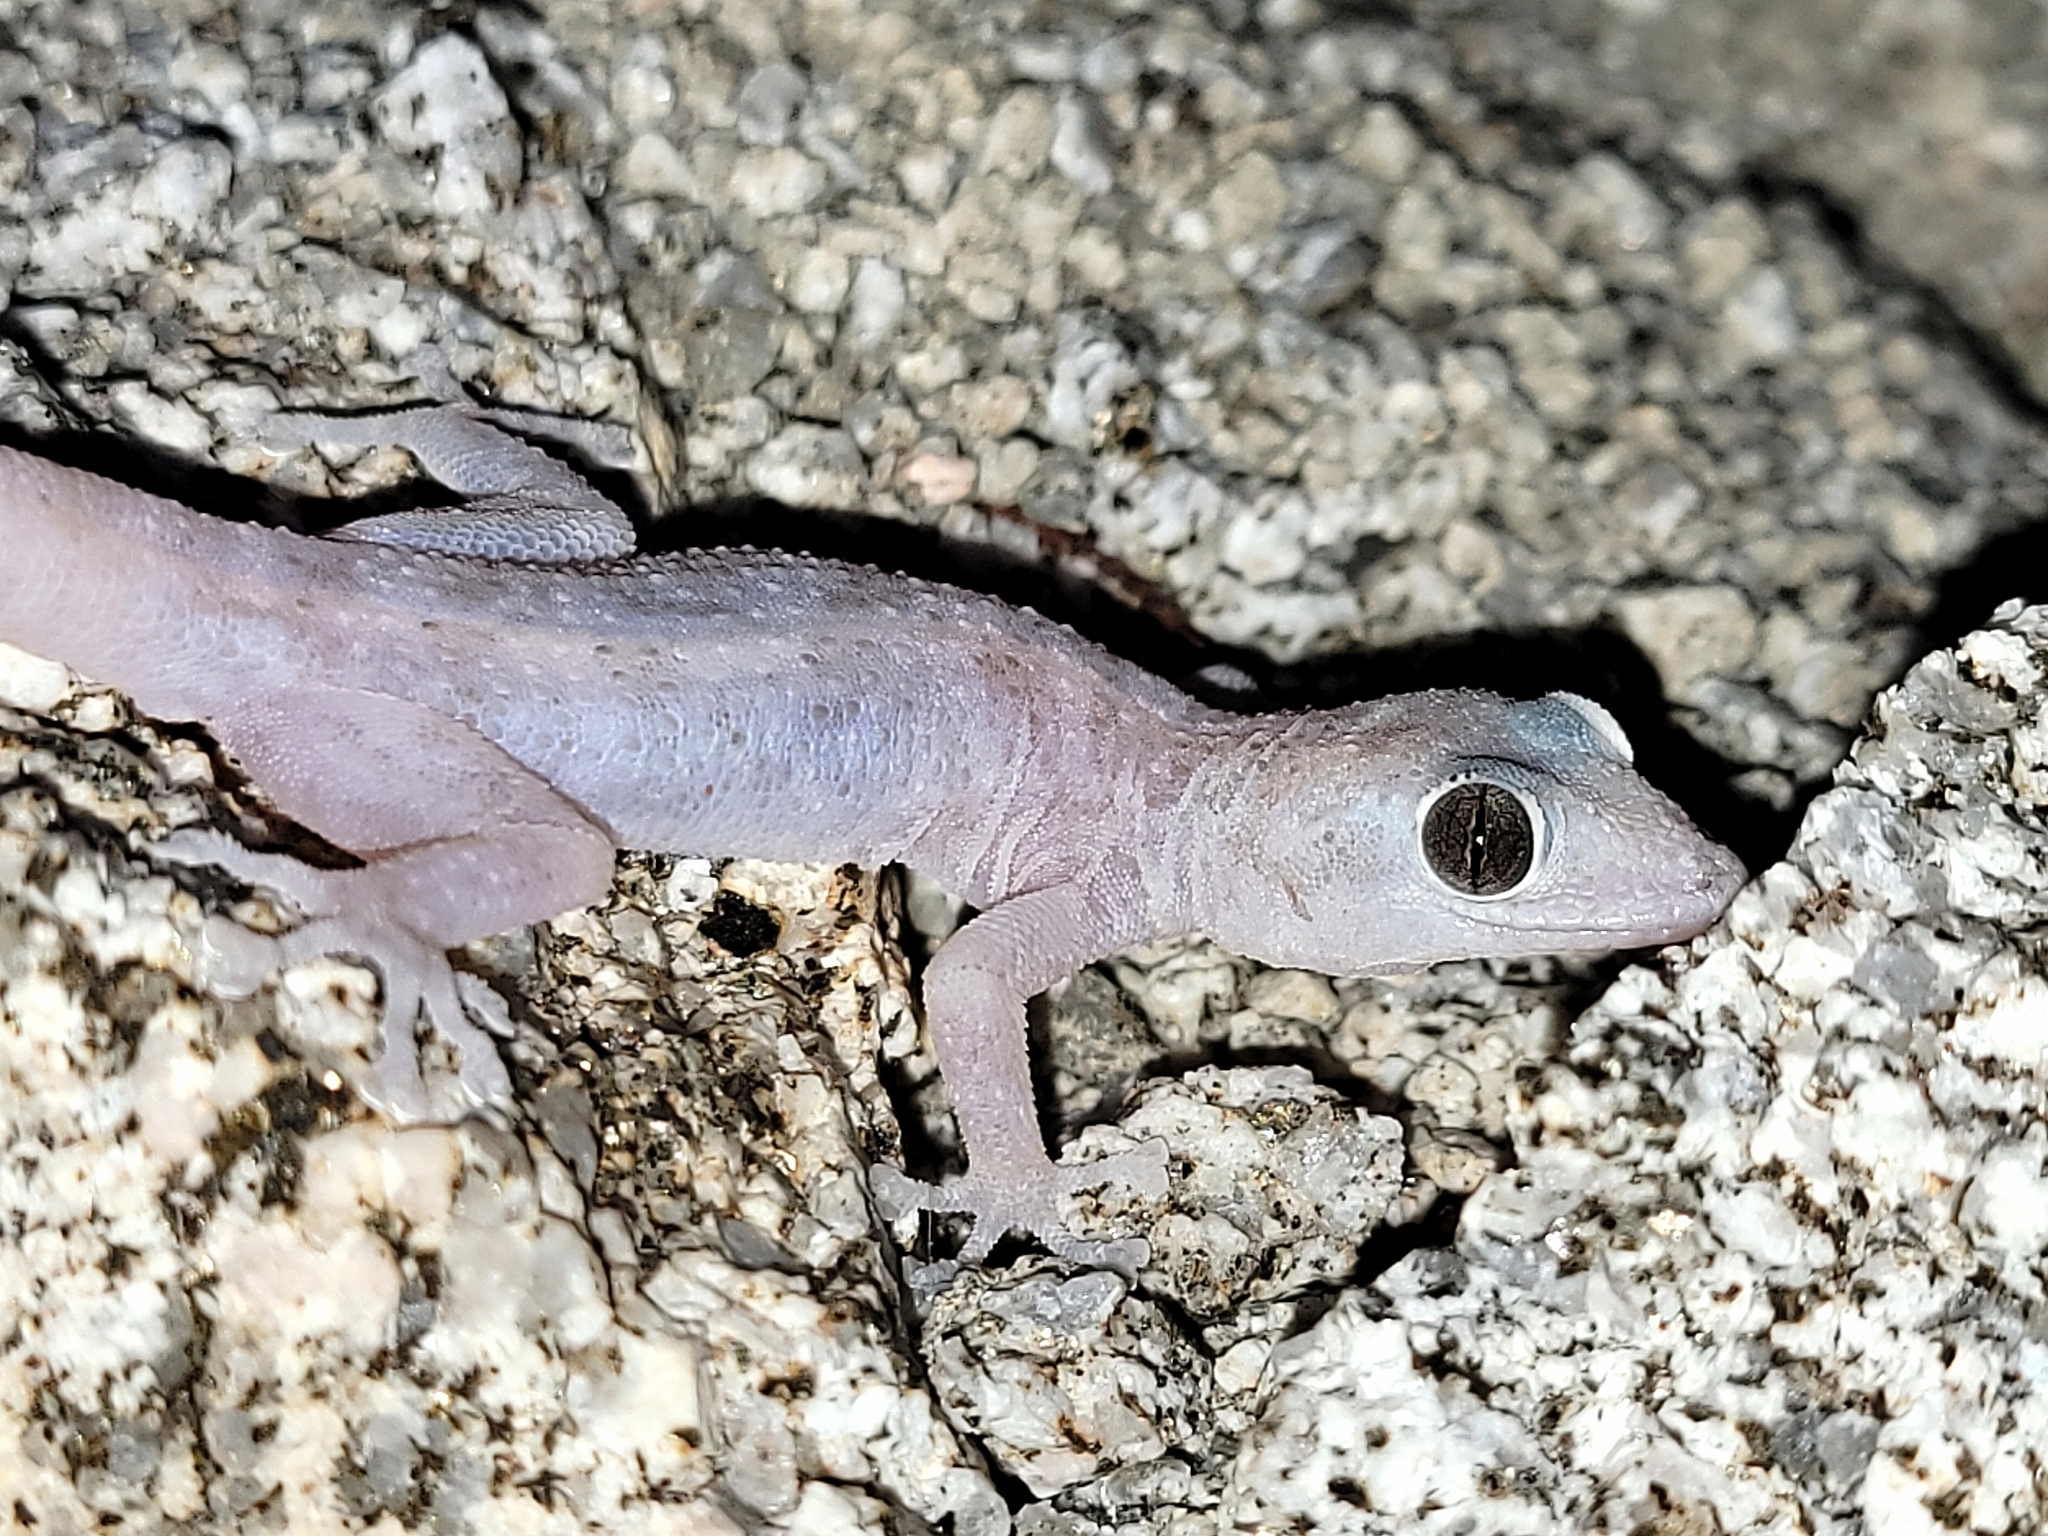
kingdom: Animalia
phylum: Chordata
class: Squamata
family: Phyllodactylidae
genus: Phyllodactylus
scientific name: Phyllodactylus nocticolus
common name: Peninsula leaf-toed gecko
